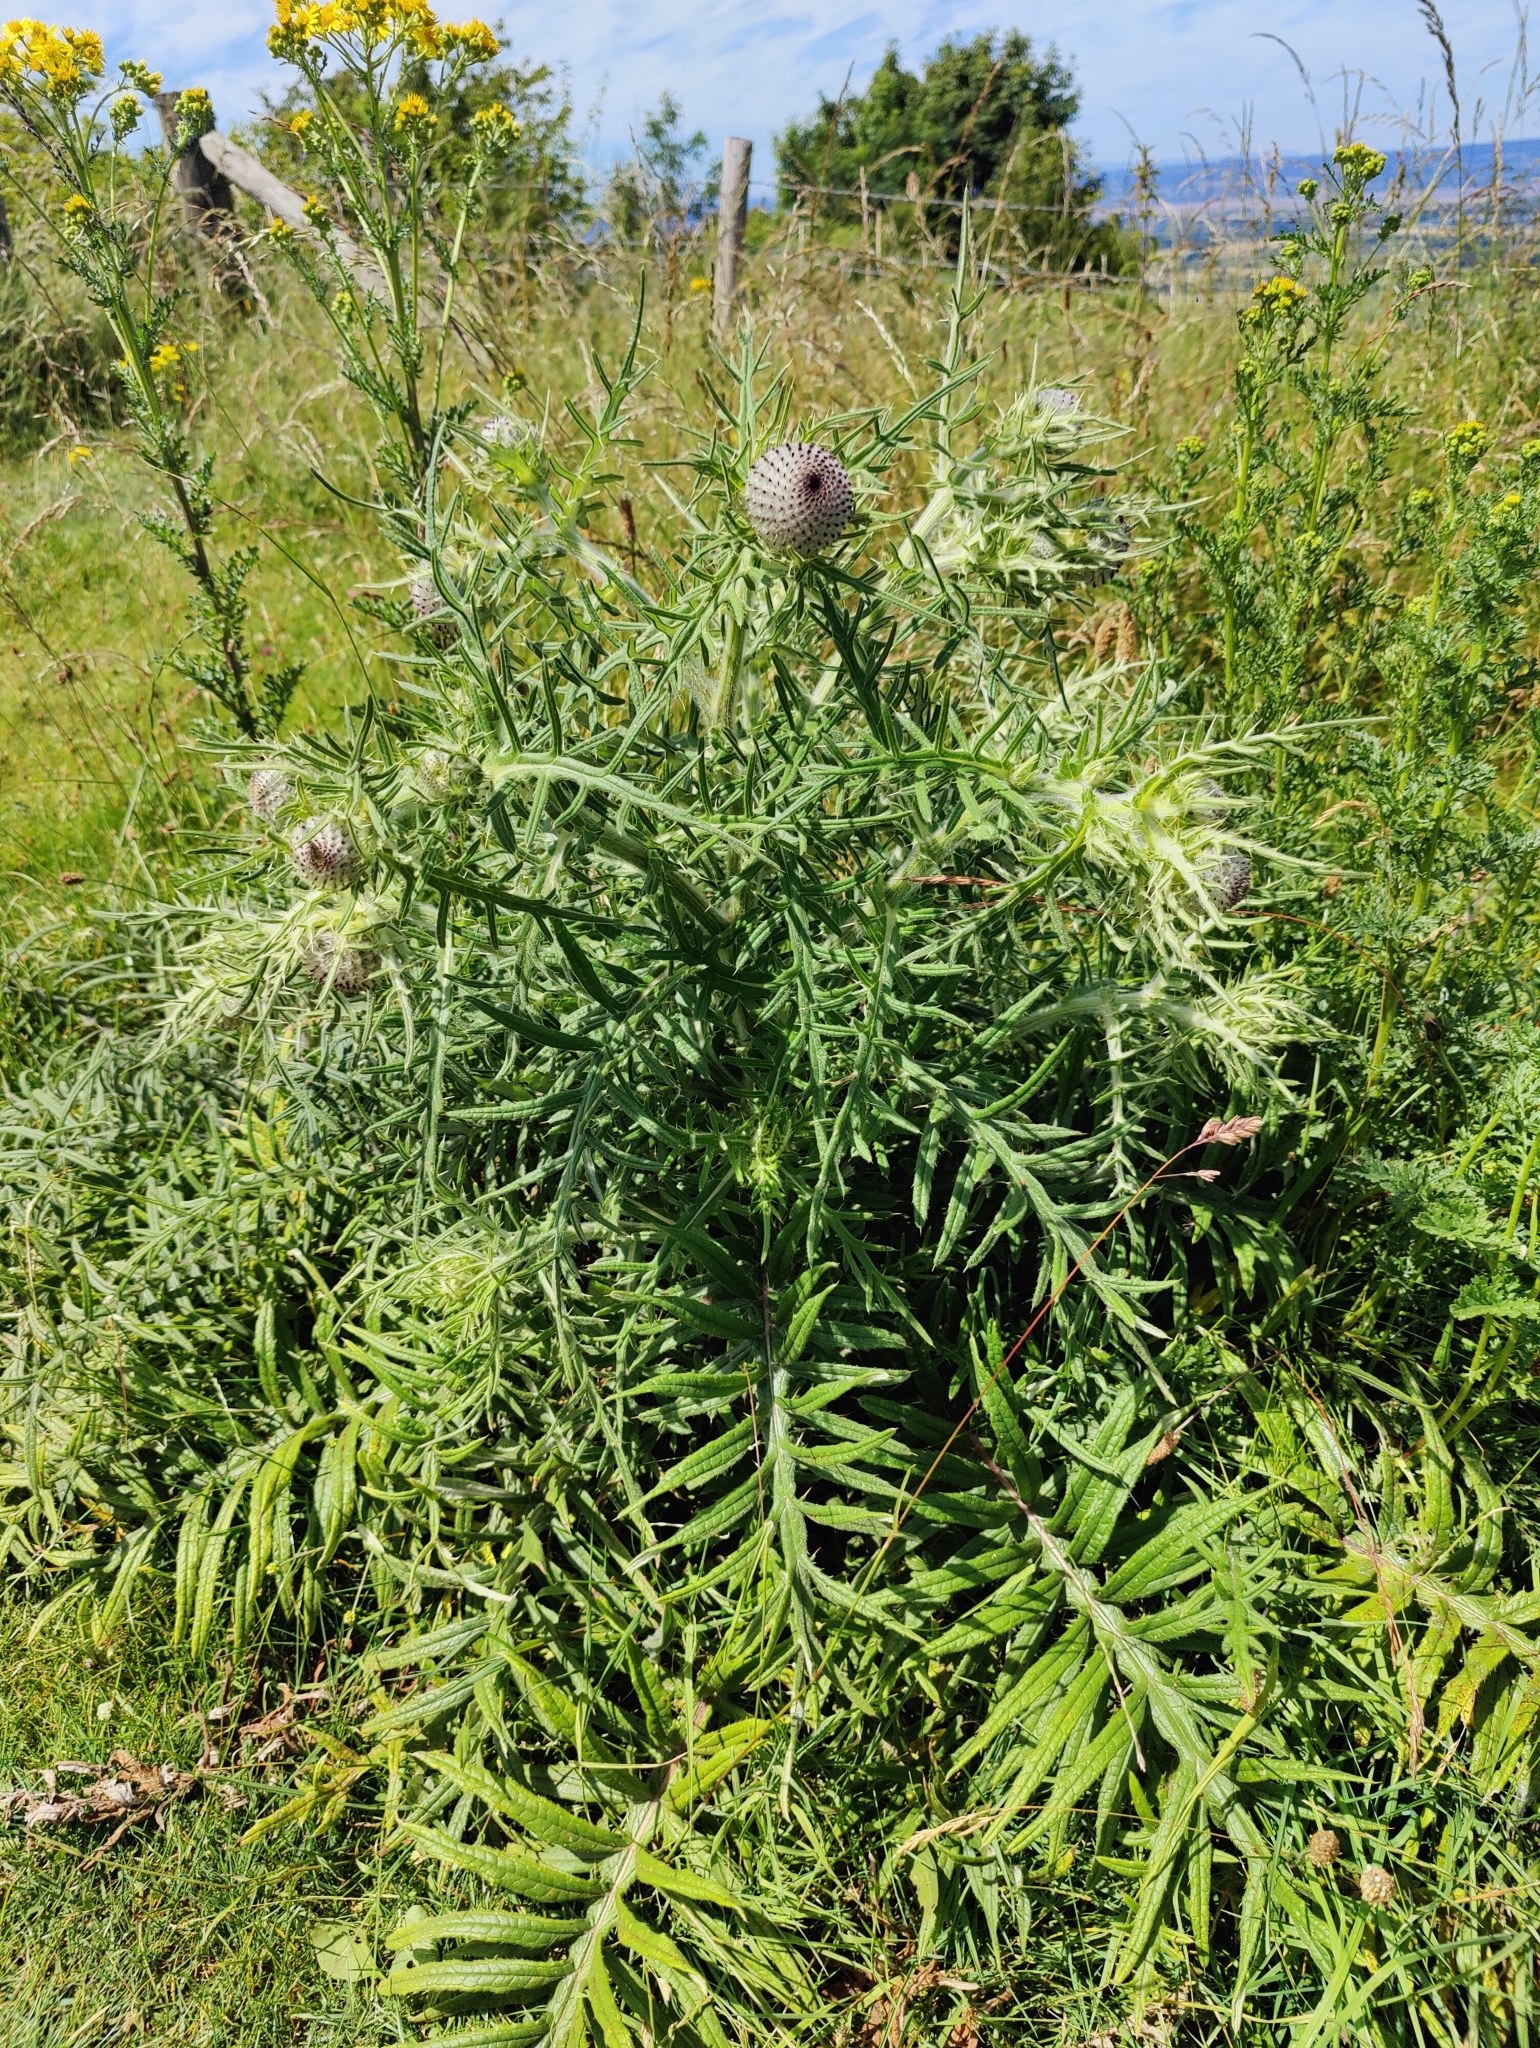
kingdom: Plantae
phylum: Tracheophyta
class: Magnoliopsida
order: Asterales
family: Asteraceae
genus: Lophiolepis
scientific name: Lophiolepis eriophora
